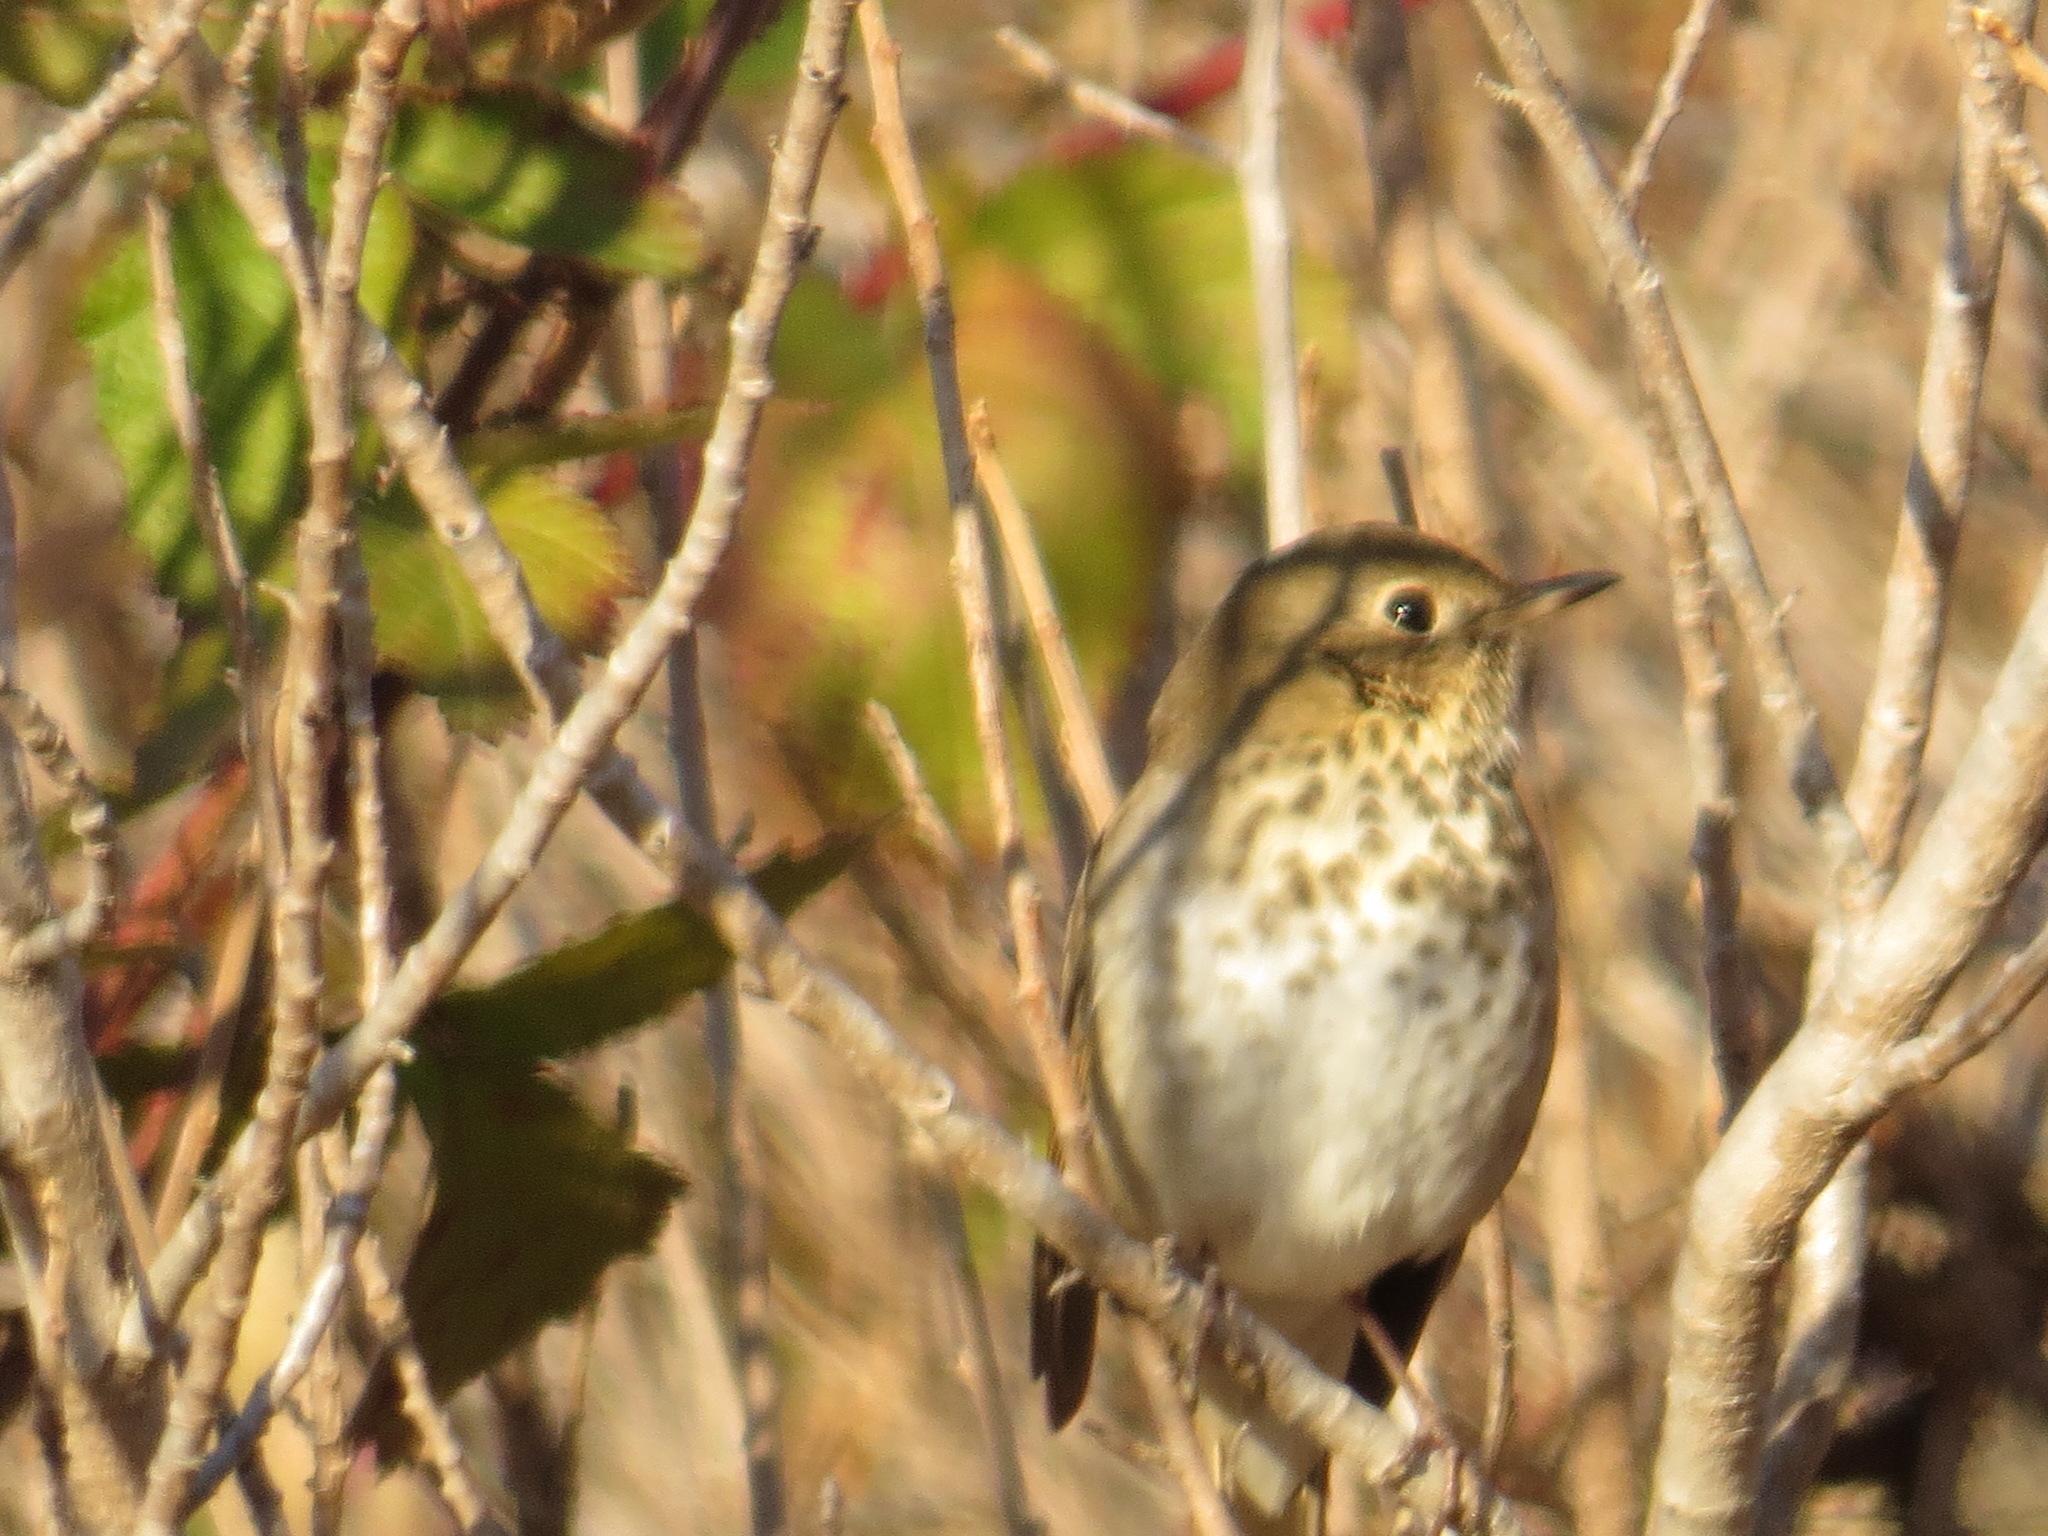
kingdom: Animalia
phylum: Chordata
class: Aves
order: Passeriformes
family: Turdidae
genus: Catharus
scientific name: Catharus guttatus
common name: Hermit thrush
